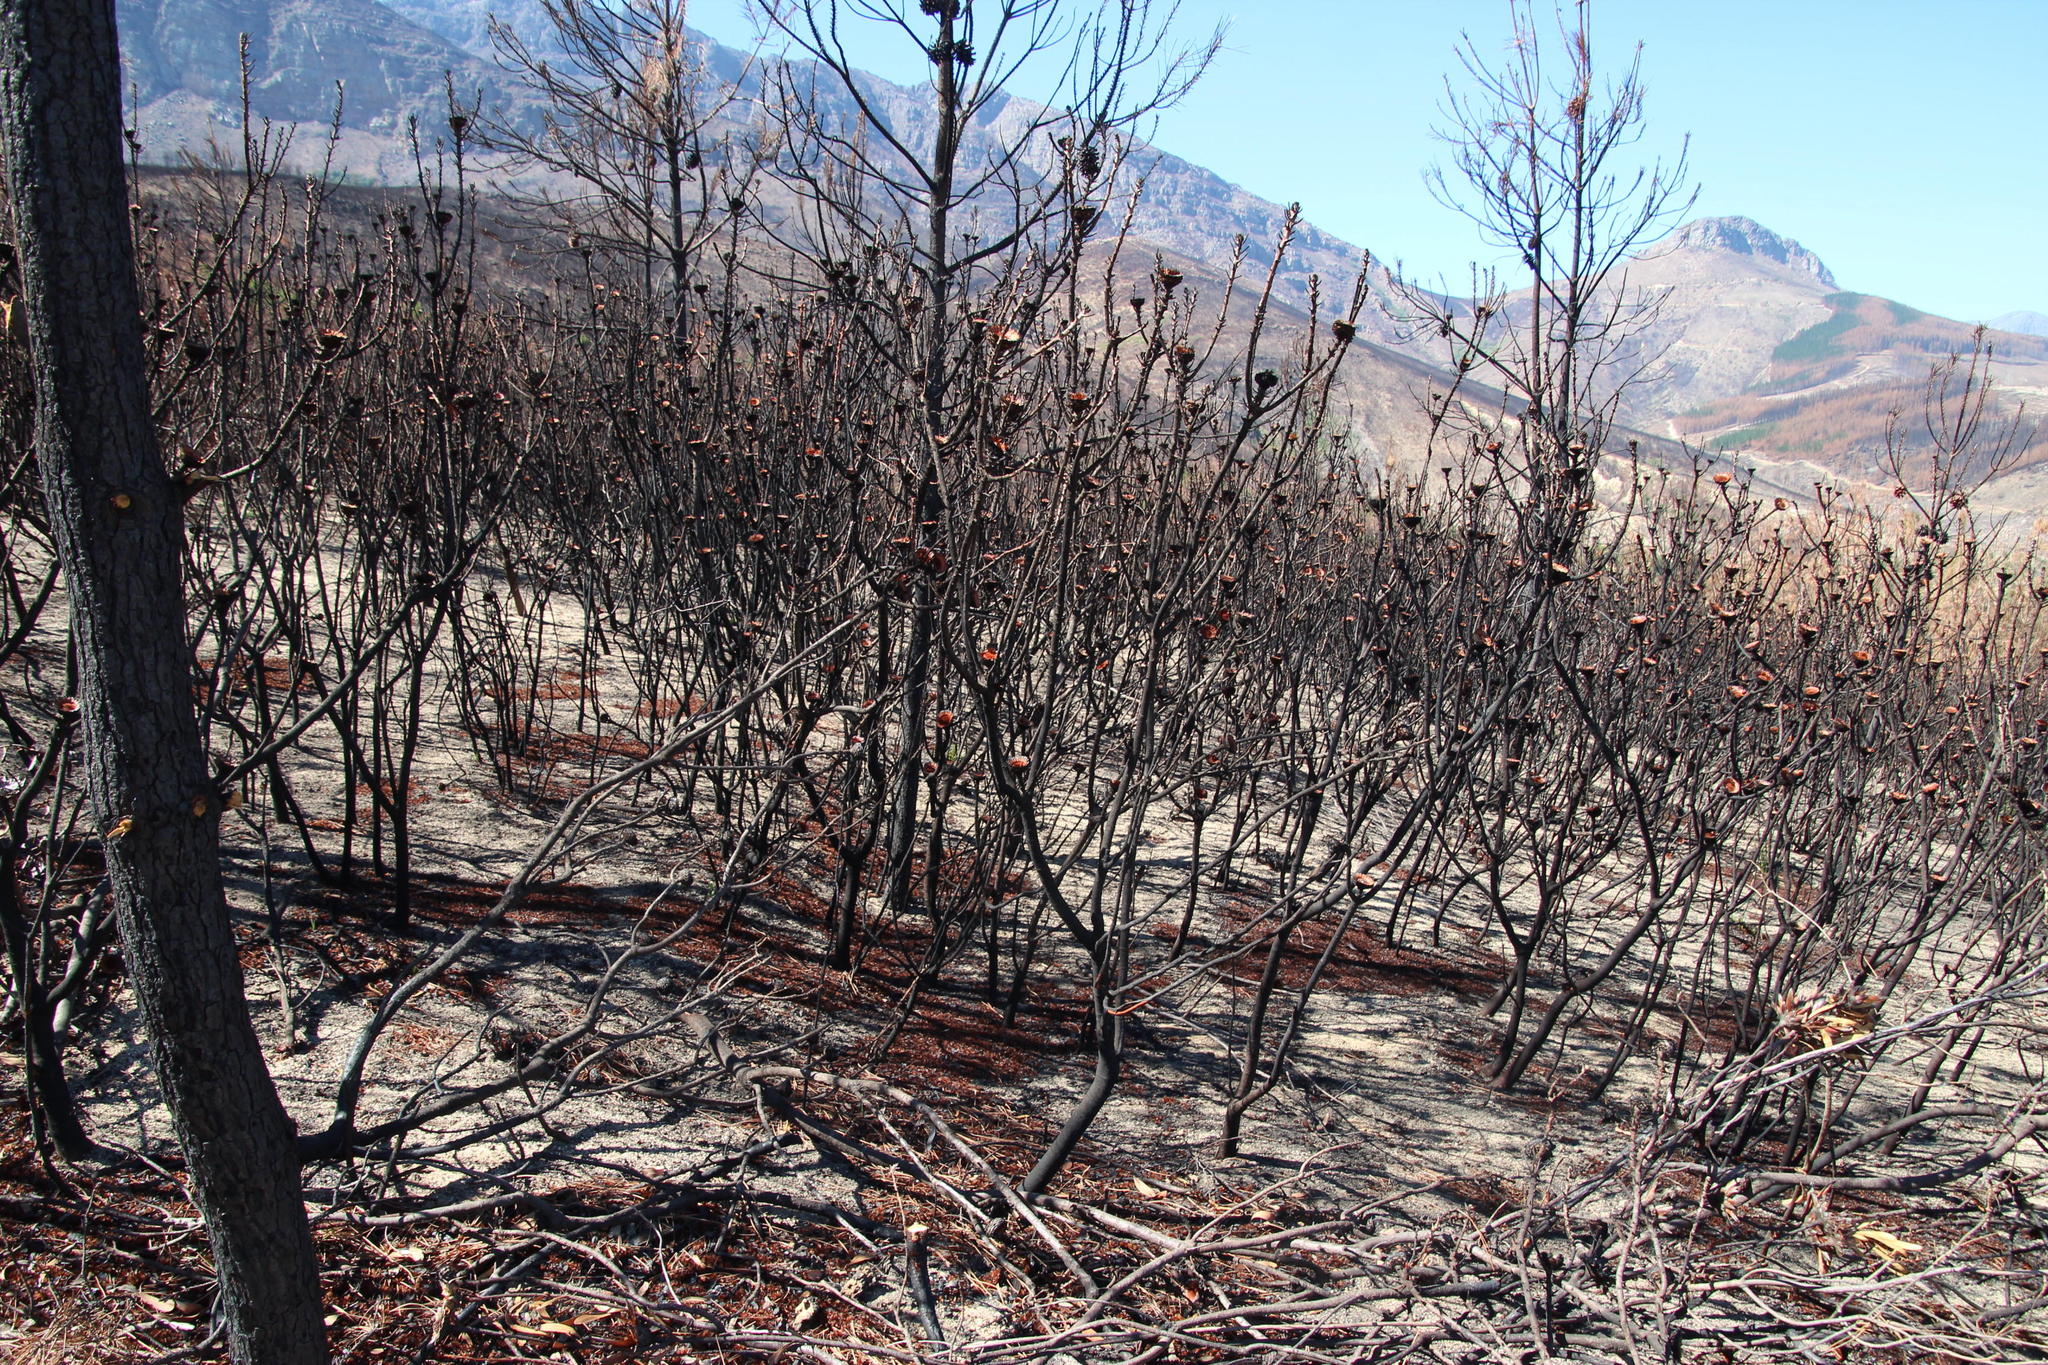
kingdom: Plantae
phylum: Tracheophyta
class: Magnoliopsida
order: Proteales
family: Proteaceae
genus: Protea
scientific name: Protea laurifolia
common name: Grey-leaf sugarbsh
